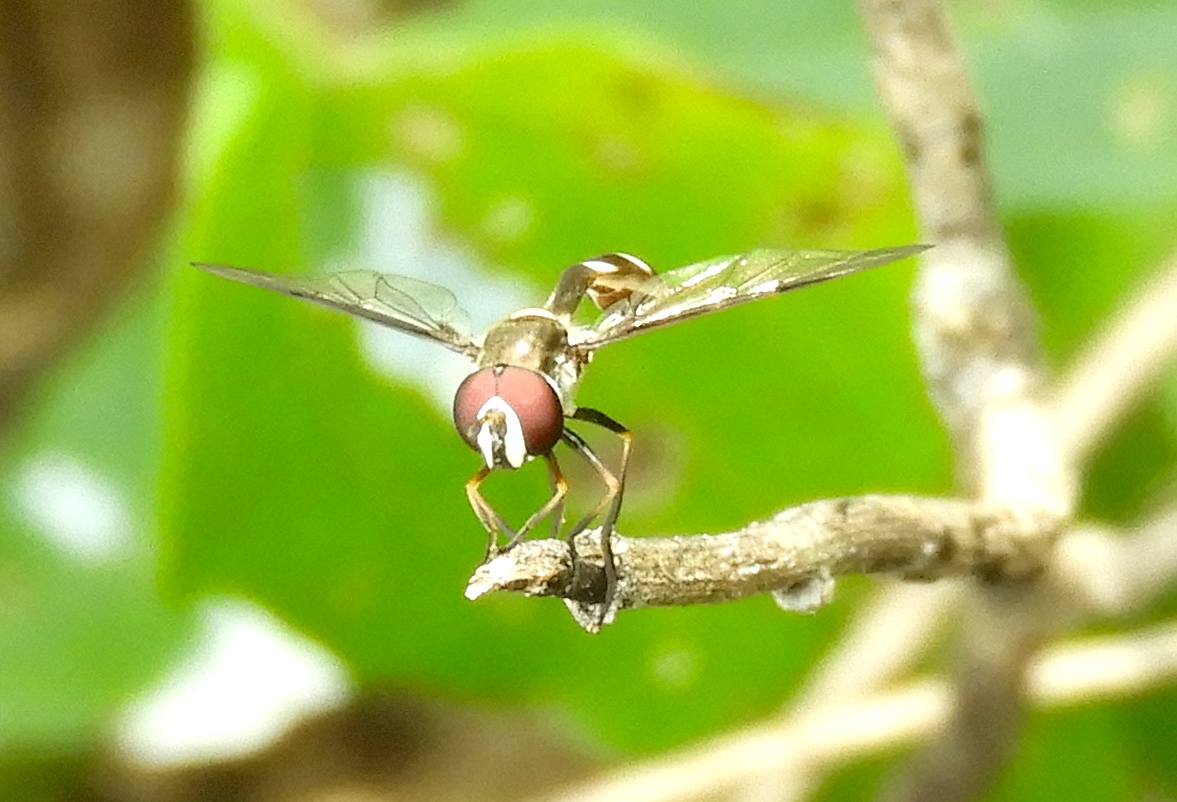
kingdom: Animalia
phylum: Arthropoda
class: Insecta
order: Diptera
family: Syrphidae
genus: Dioprosopa
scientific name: Dioprosopa clavatus
